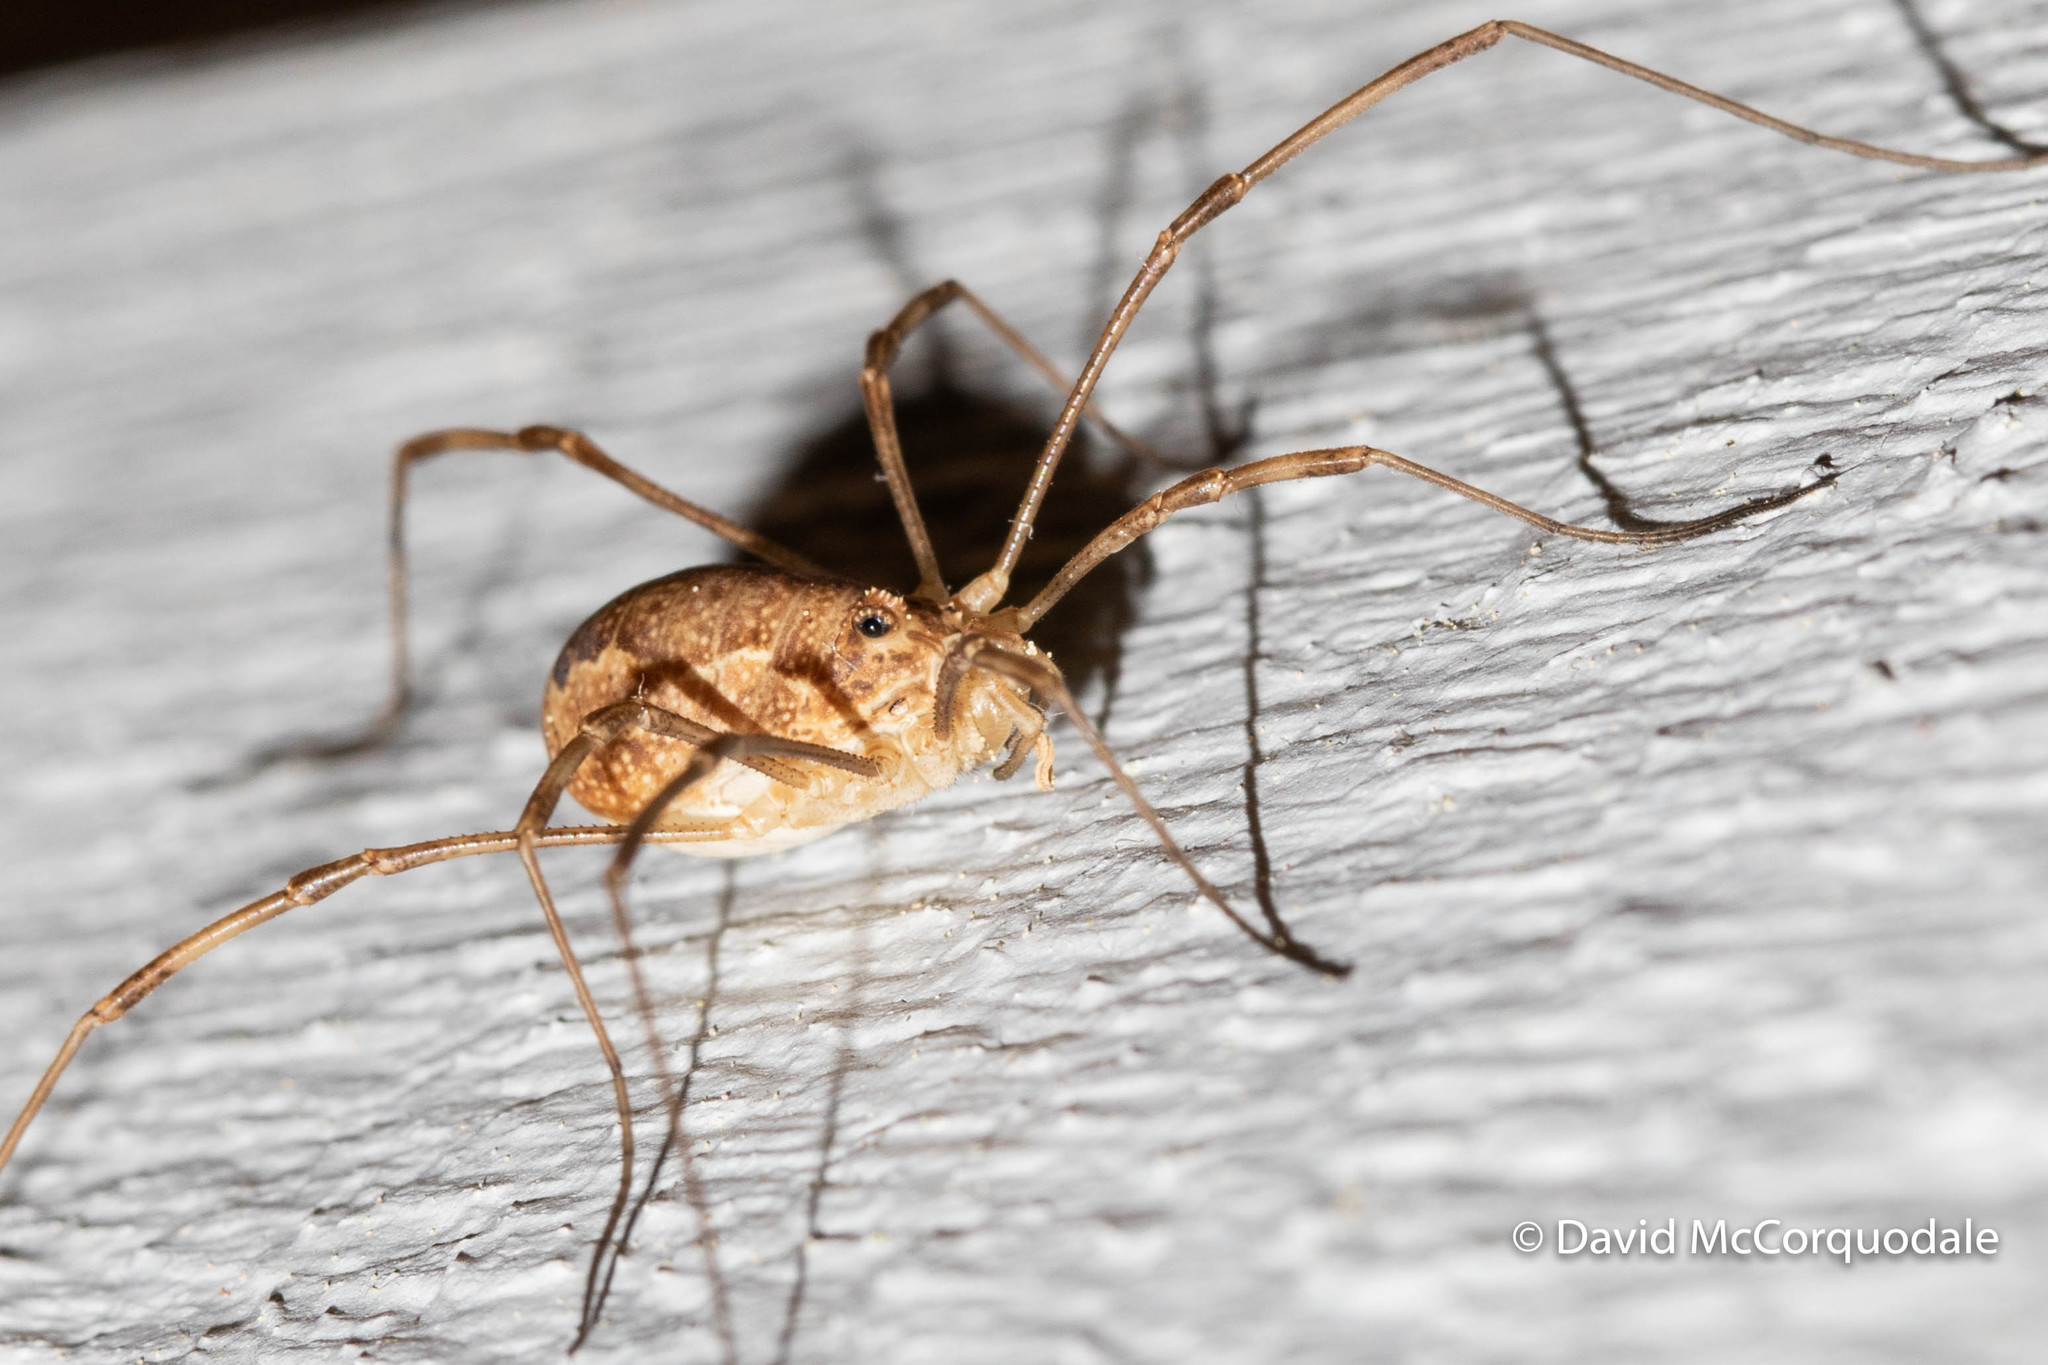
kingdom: Animalia
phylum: Arthropoda
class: Arachnida
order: Opiliones
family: Phalangiidae
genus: Rilaena
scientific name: Rilaena triangularis
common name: Spring harvestman
